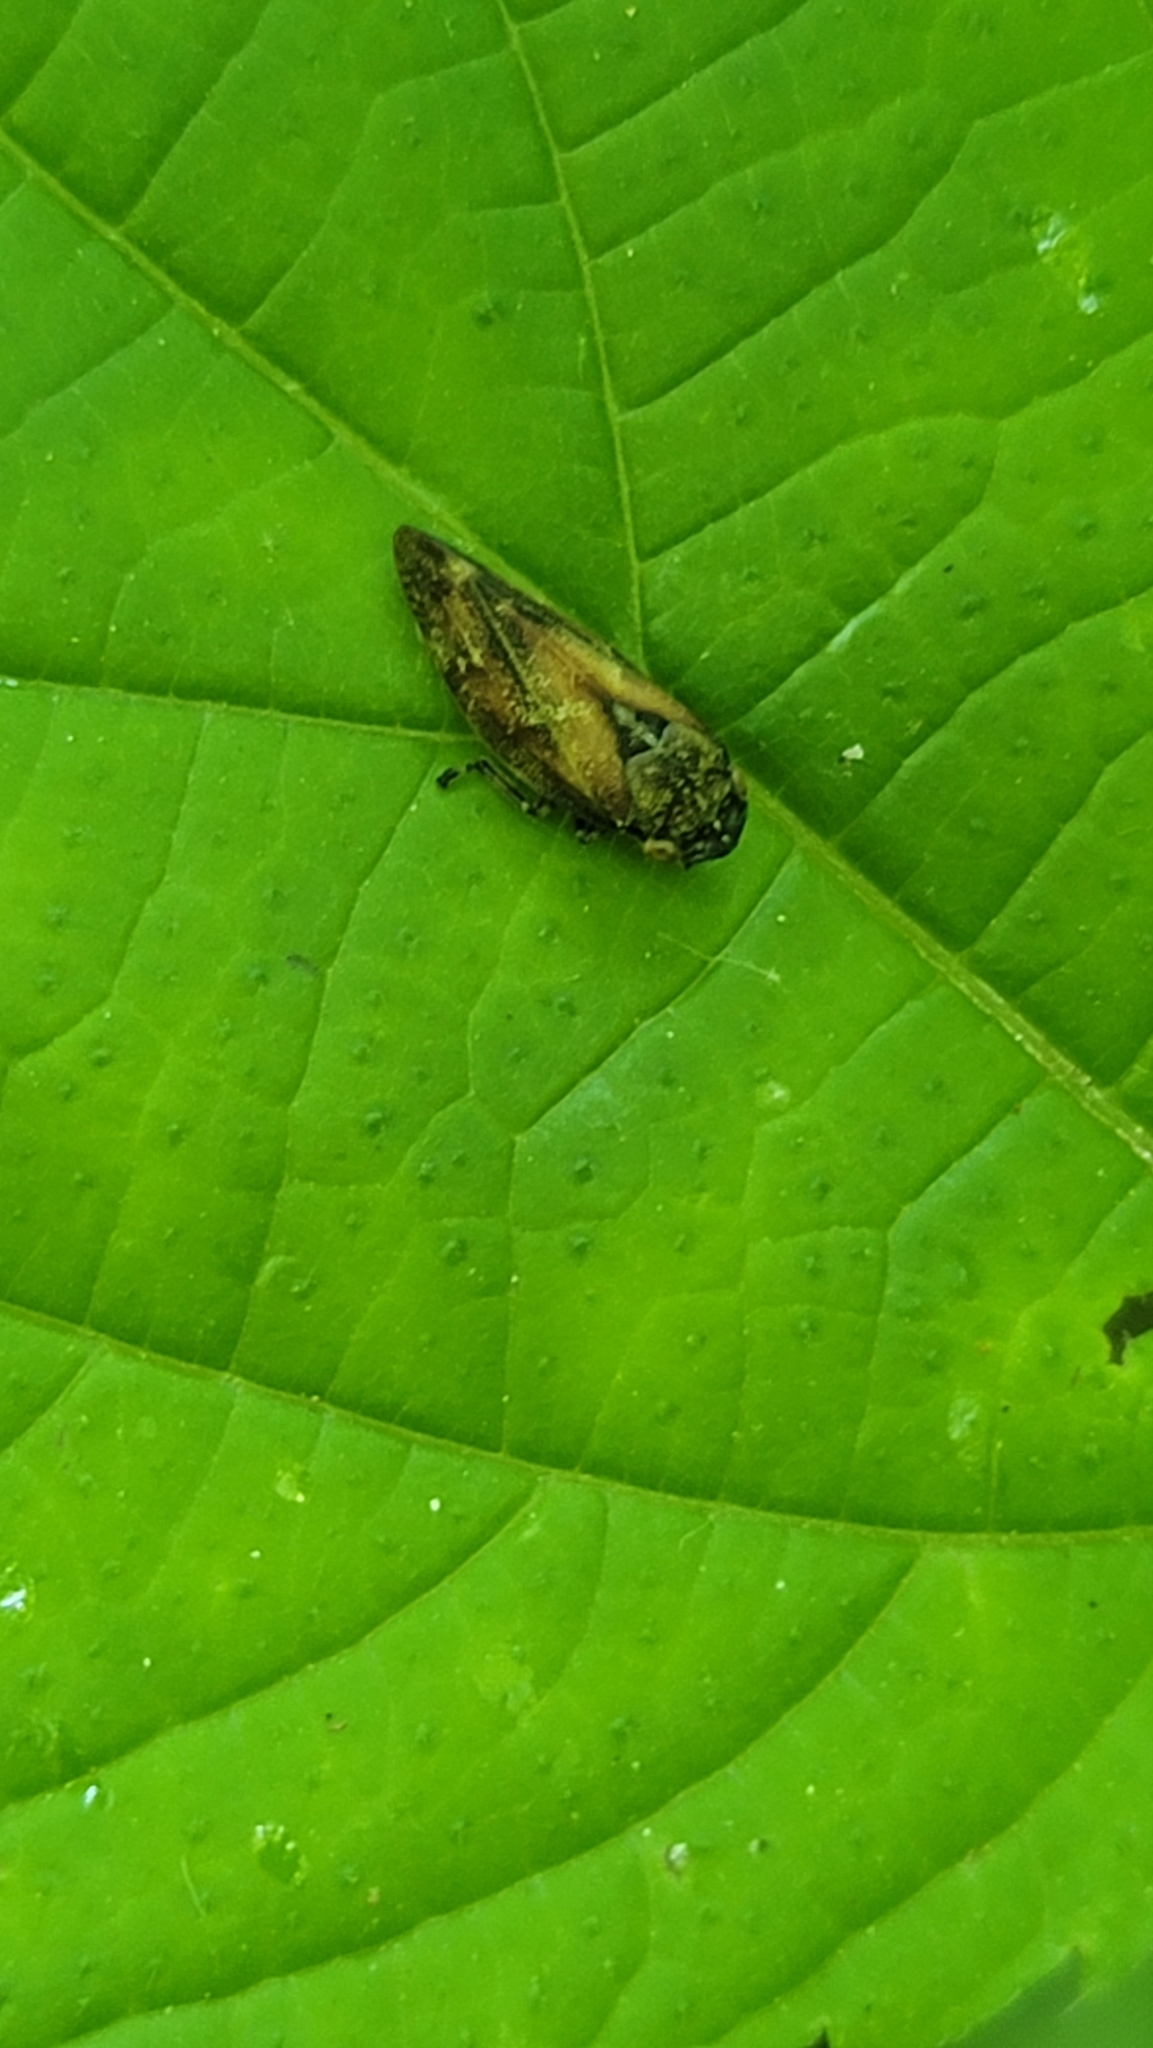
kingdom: Animalia
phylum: Arthropoda
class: Insecta
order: Hemiptera
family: Aphrophoridae
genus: Aphrophora
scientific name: Aphrophora saratogensis
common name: Saratoga spittlebug
